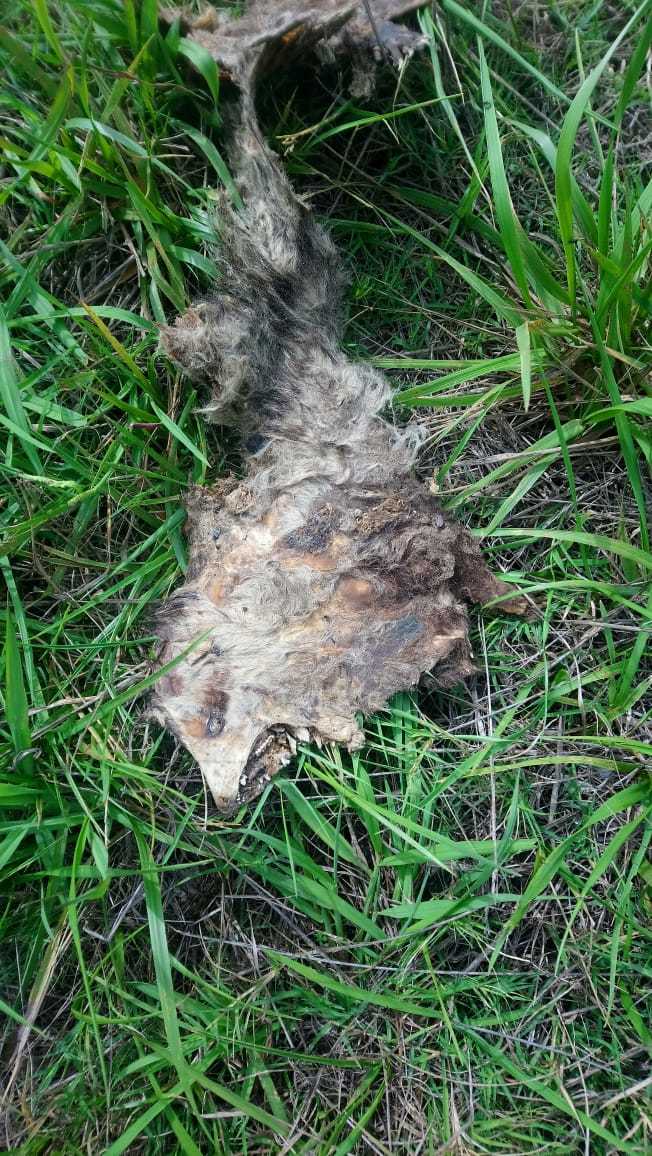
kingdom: Animalia
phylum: Chordata
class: Mammalia
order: Didelphimorphia
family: Didelphidae
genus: Didelphis
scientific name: Didelphis albiventris
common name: White-eared opossum
